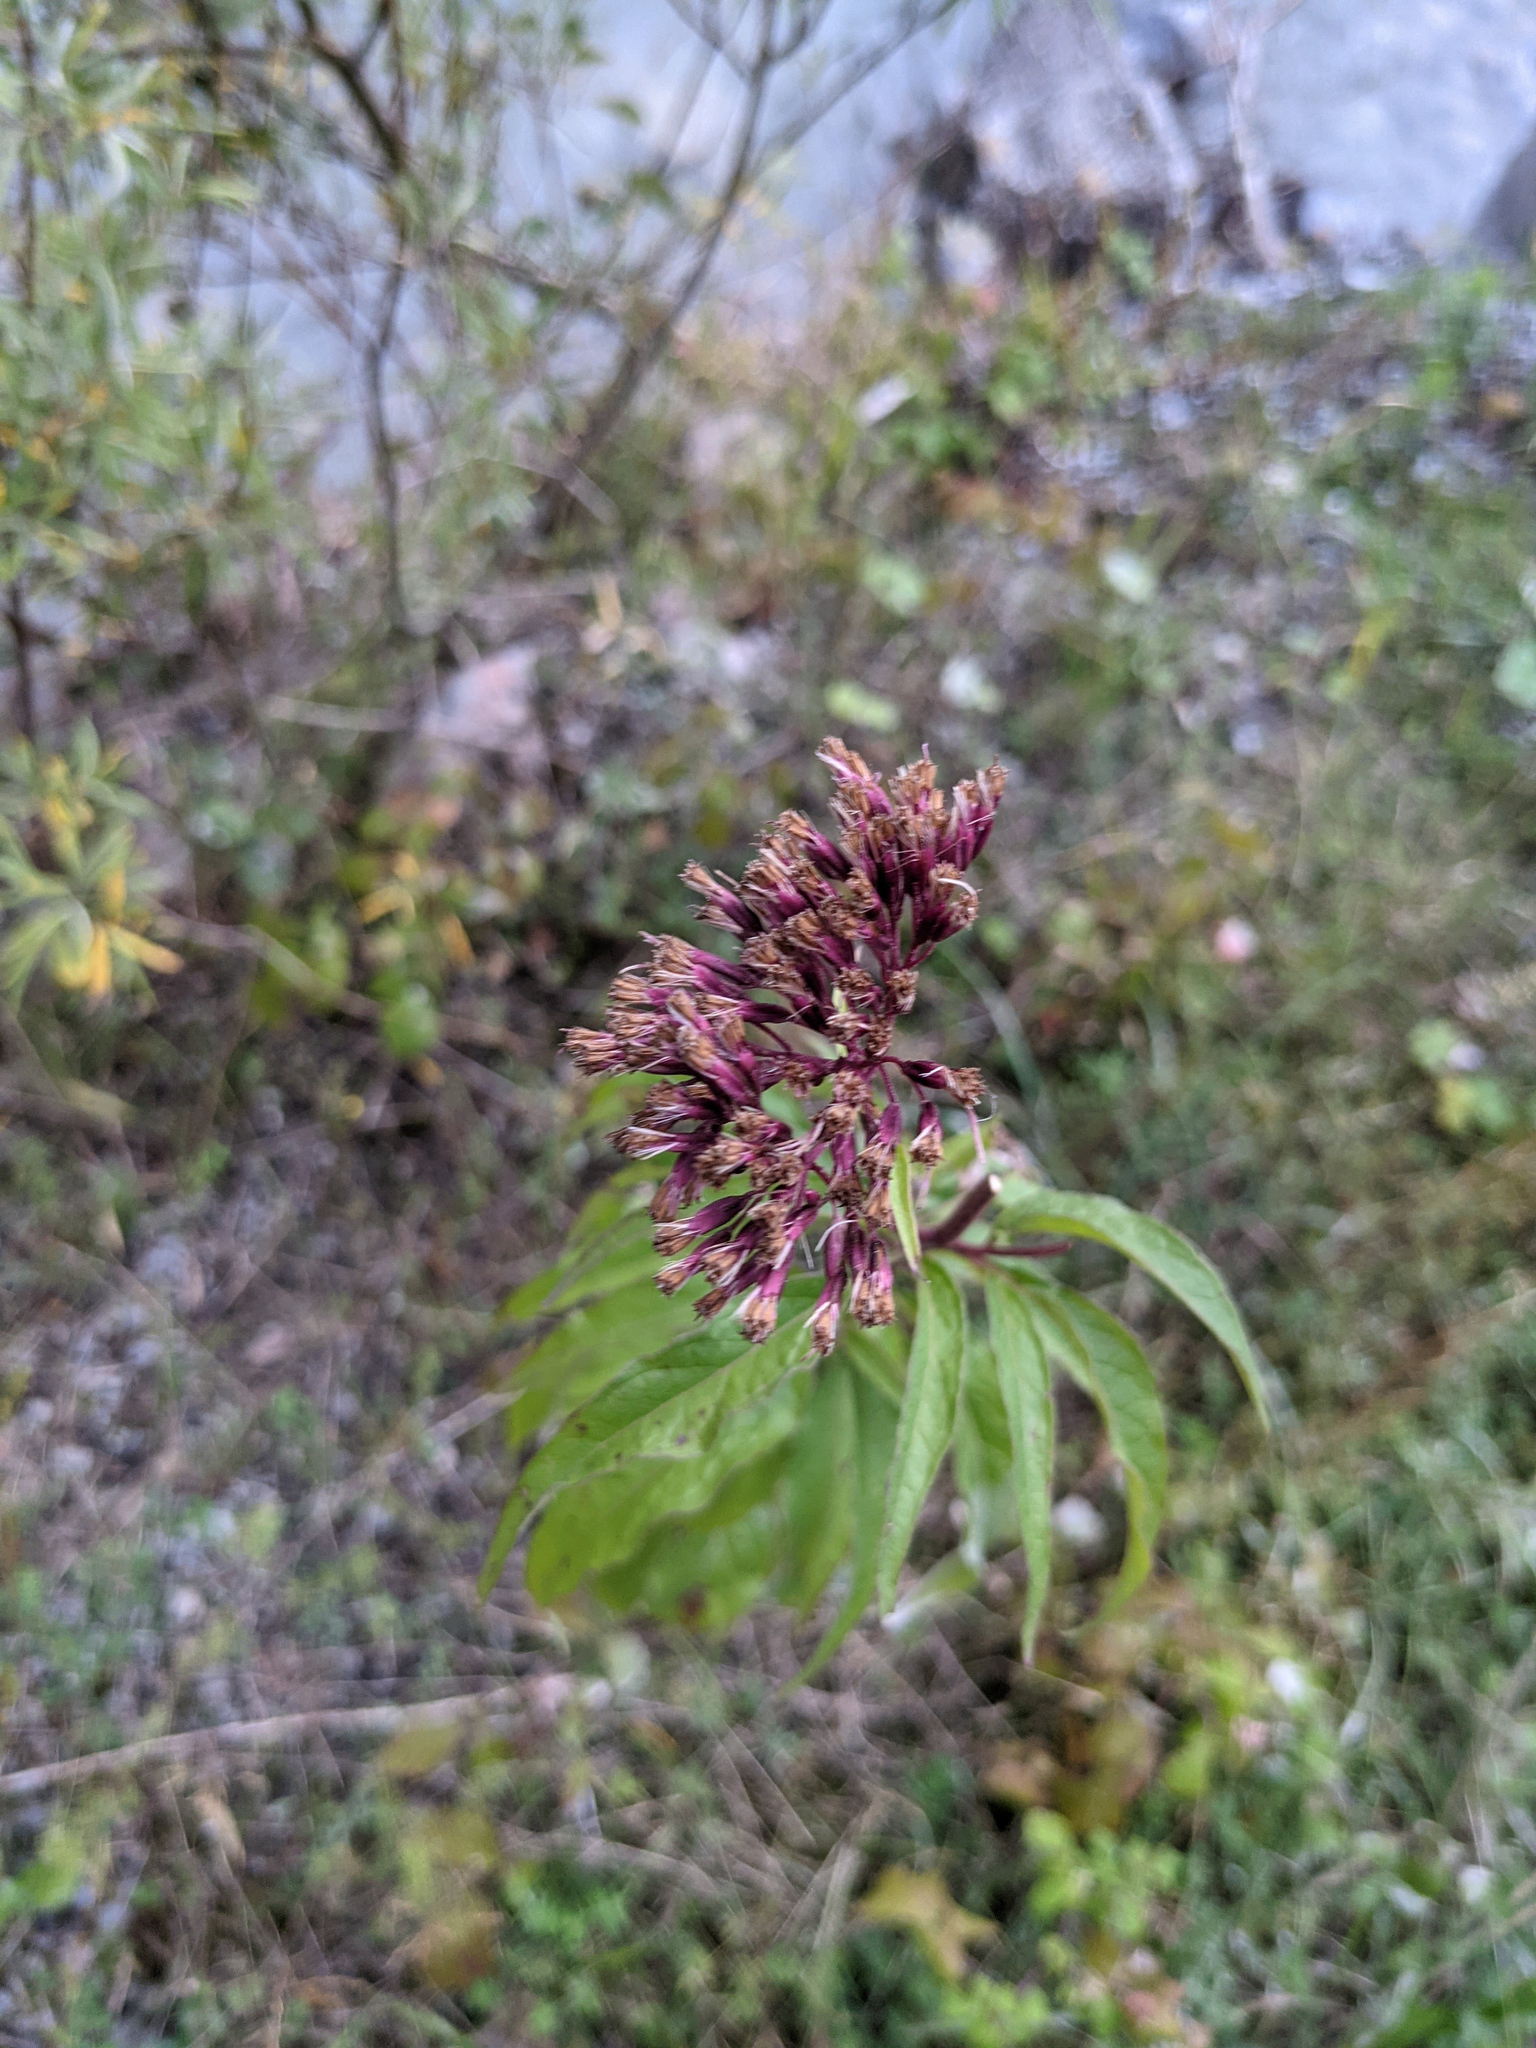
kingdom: Plantae
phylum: Tracheophyta
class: Magnoliopsida
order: Asterales
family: Asteraceae
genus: Eupatorium
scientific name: Eupatorium cannabinum
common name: Hemp-agrimony
